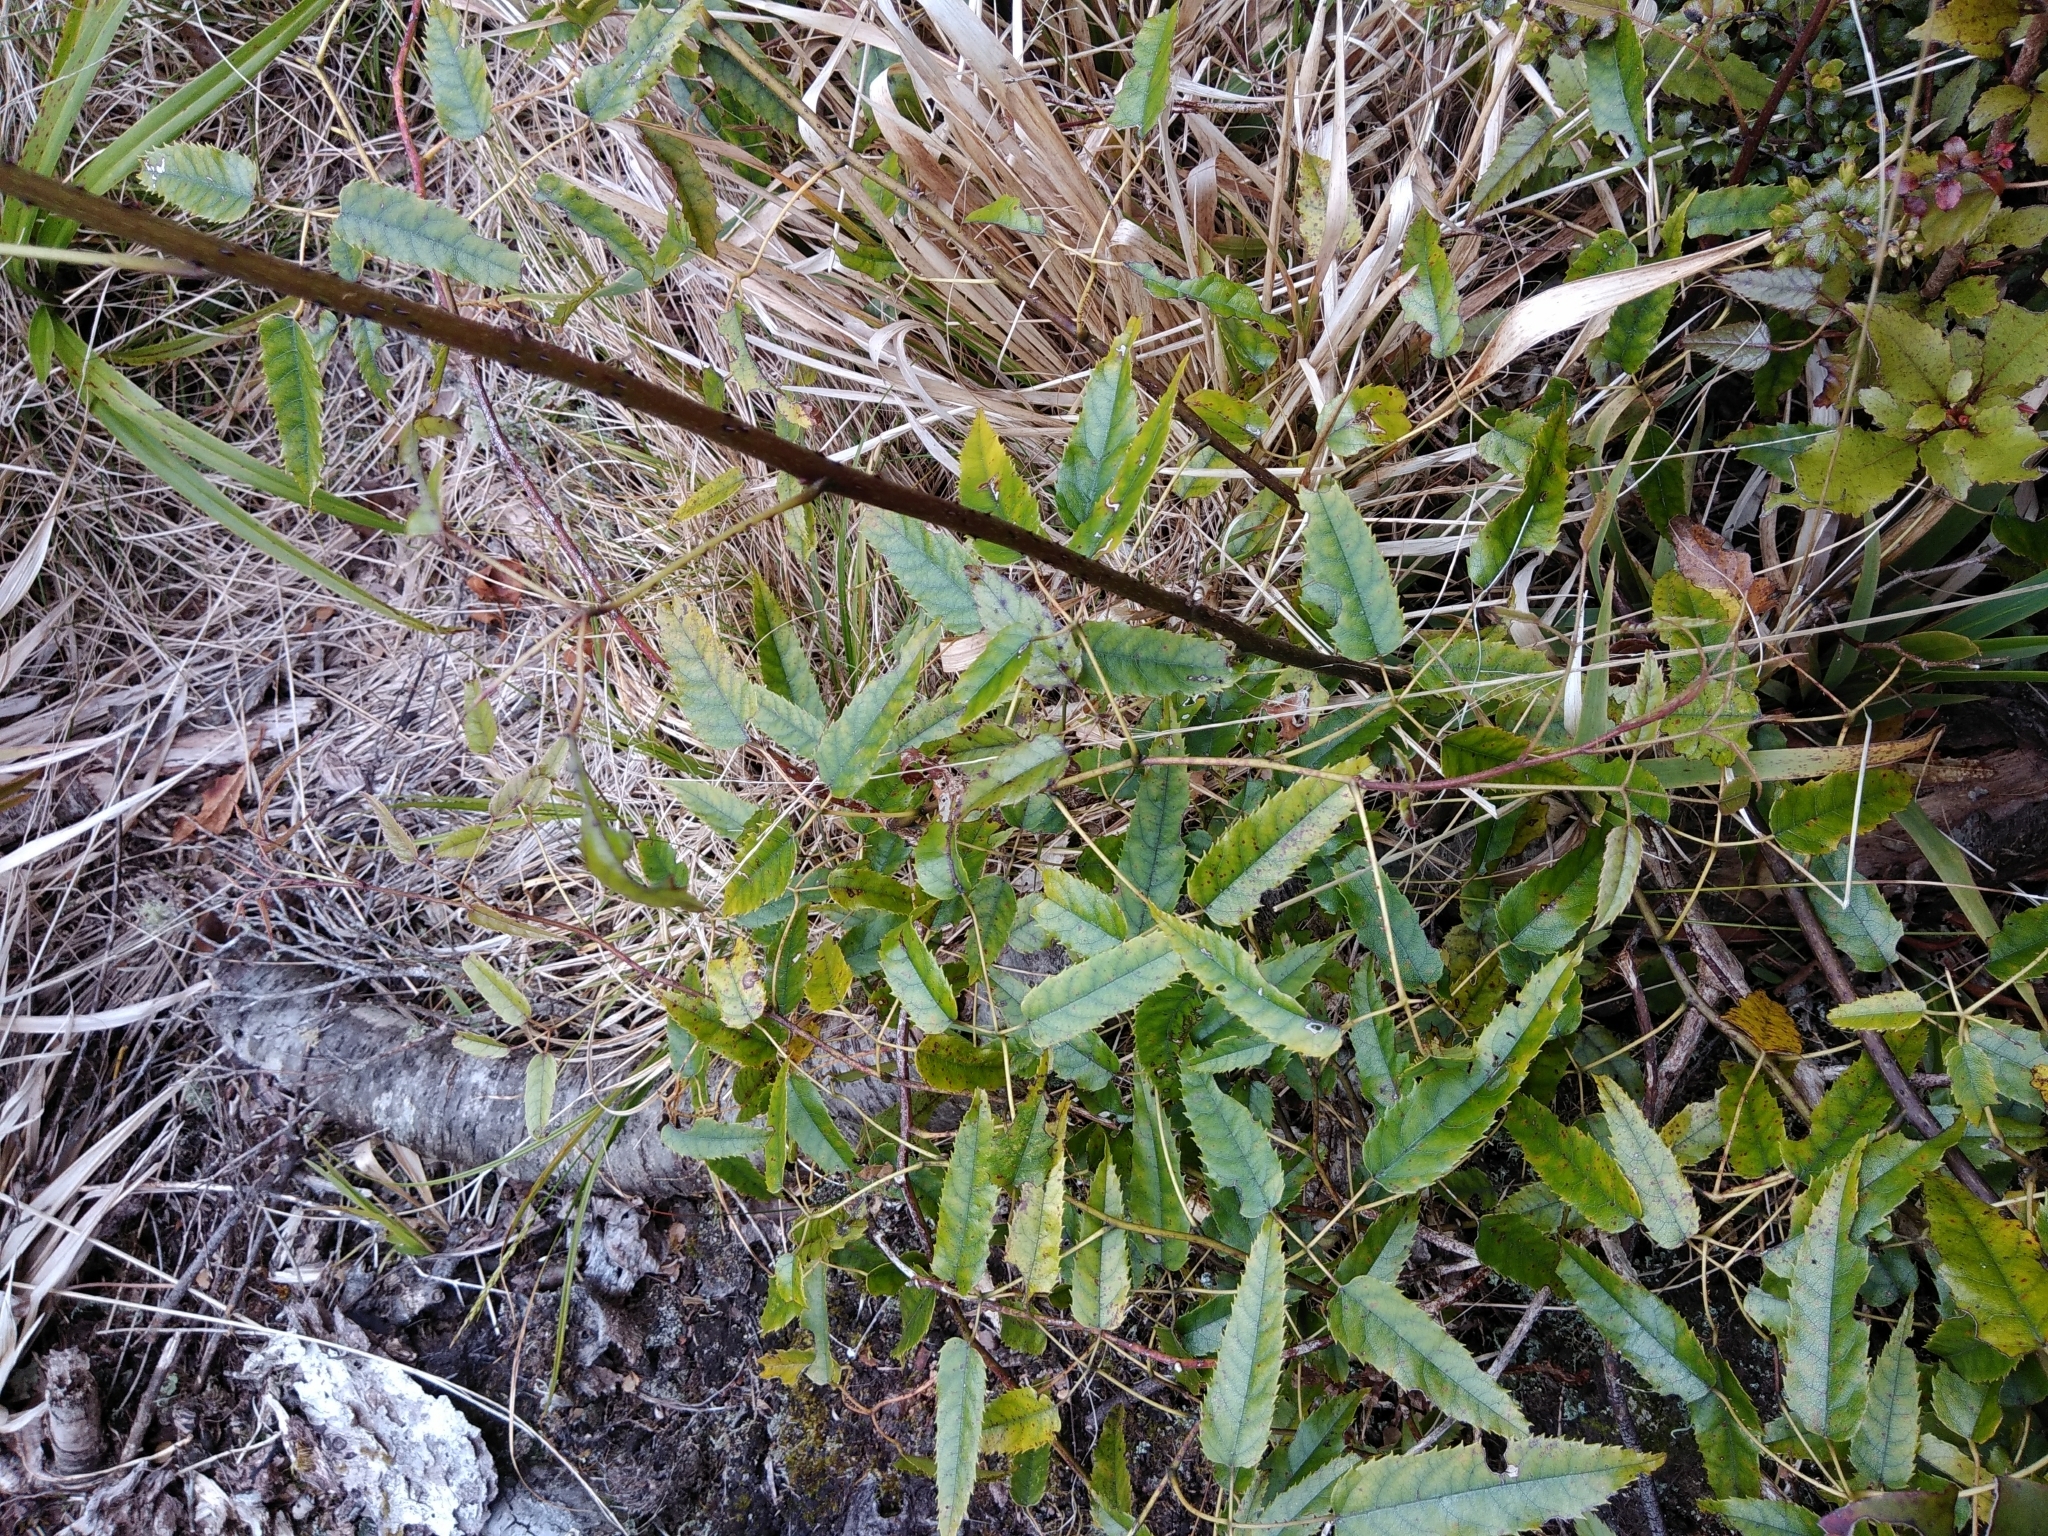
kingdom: Plantae
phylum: Tracheophyta
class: Magnoliopsida
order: Rosales
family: Rosaceae
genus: Rubus
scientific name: Rubus cissoides
